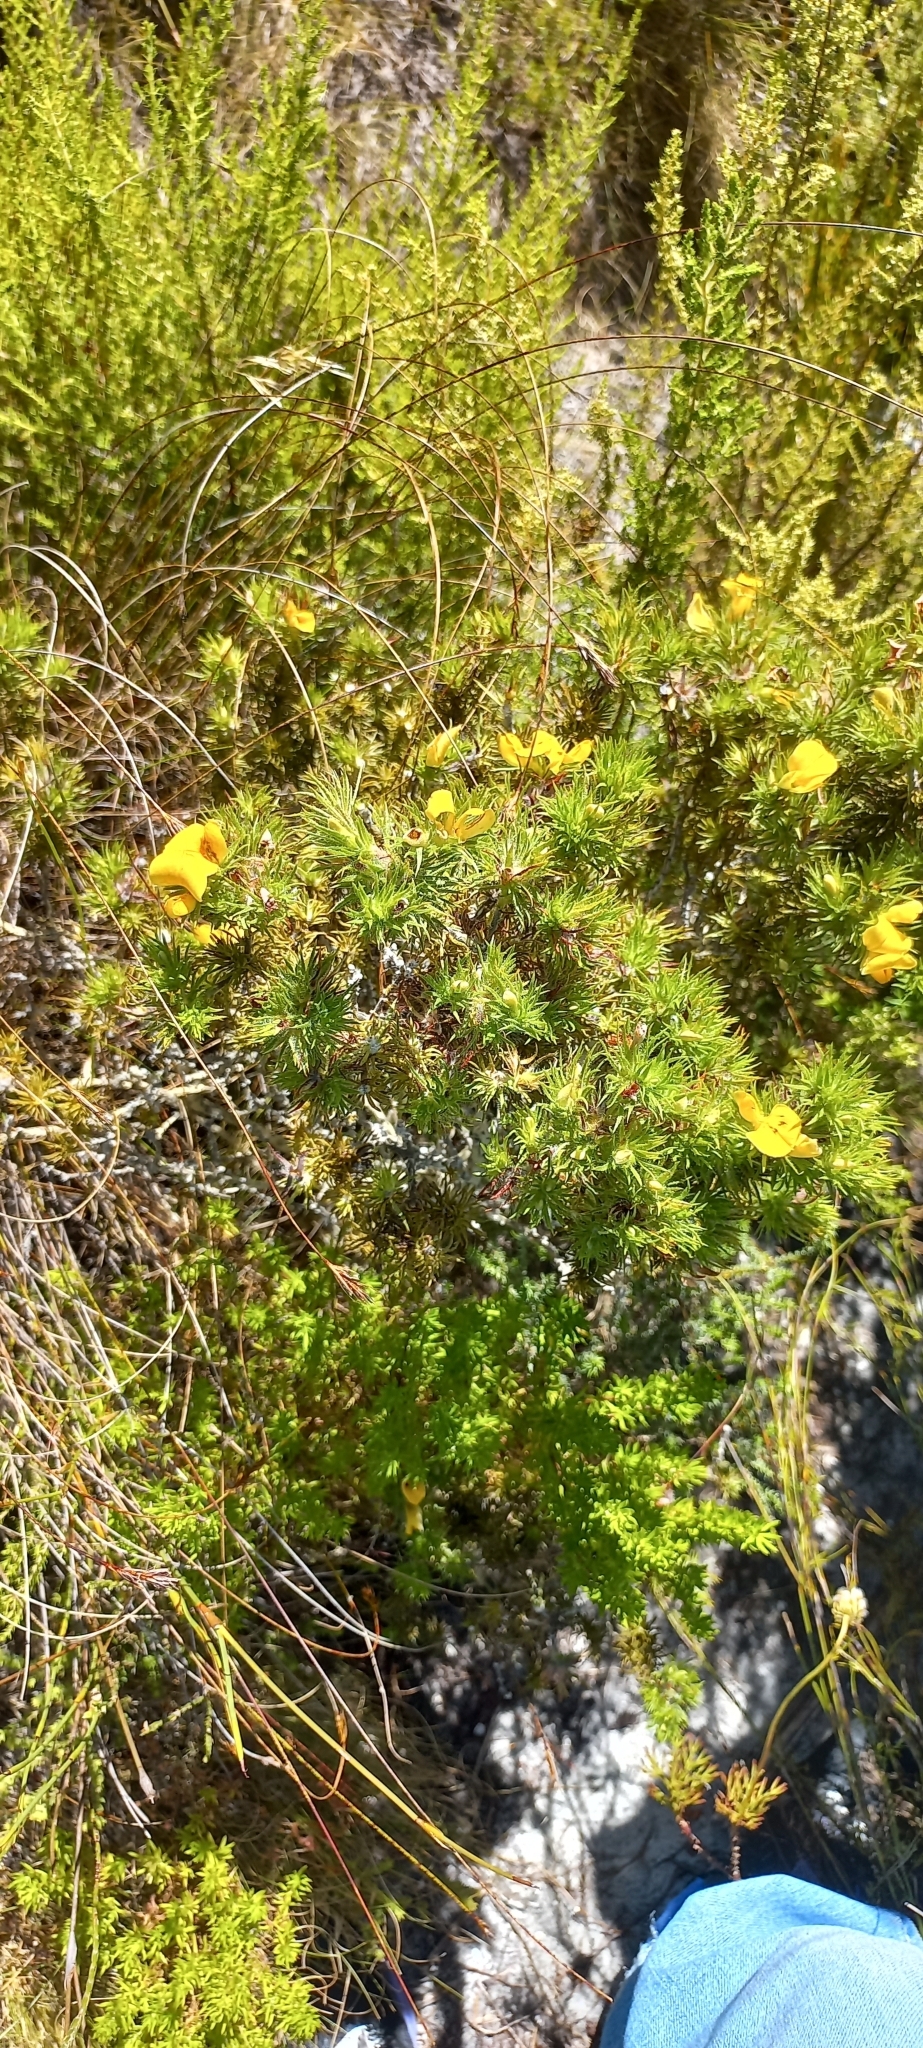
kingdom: Plantae
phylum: Tracheophyta
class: Magnoliopsida
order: Fabales
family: Fabaceae
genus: Aspalathus
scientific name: Aspalathus ciliaris
